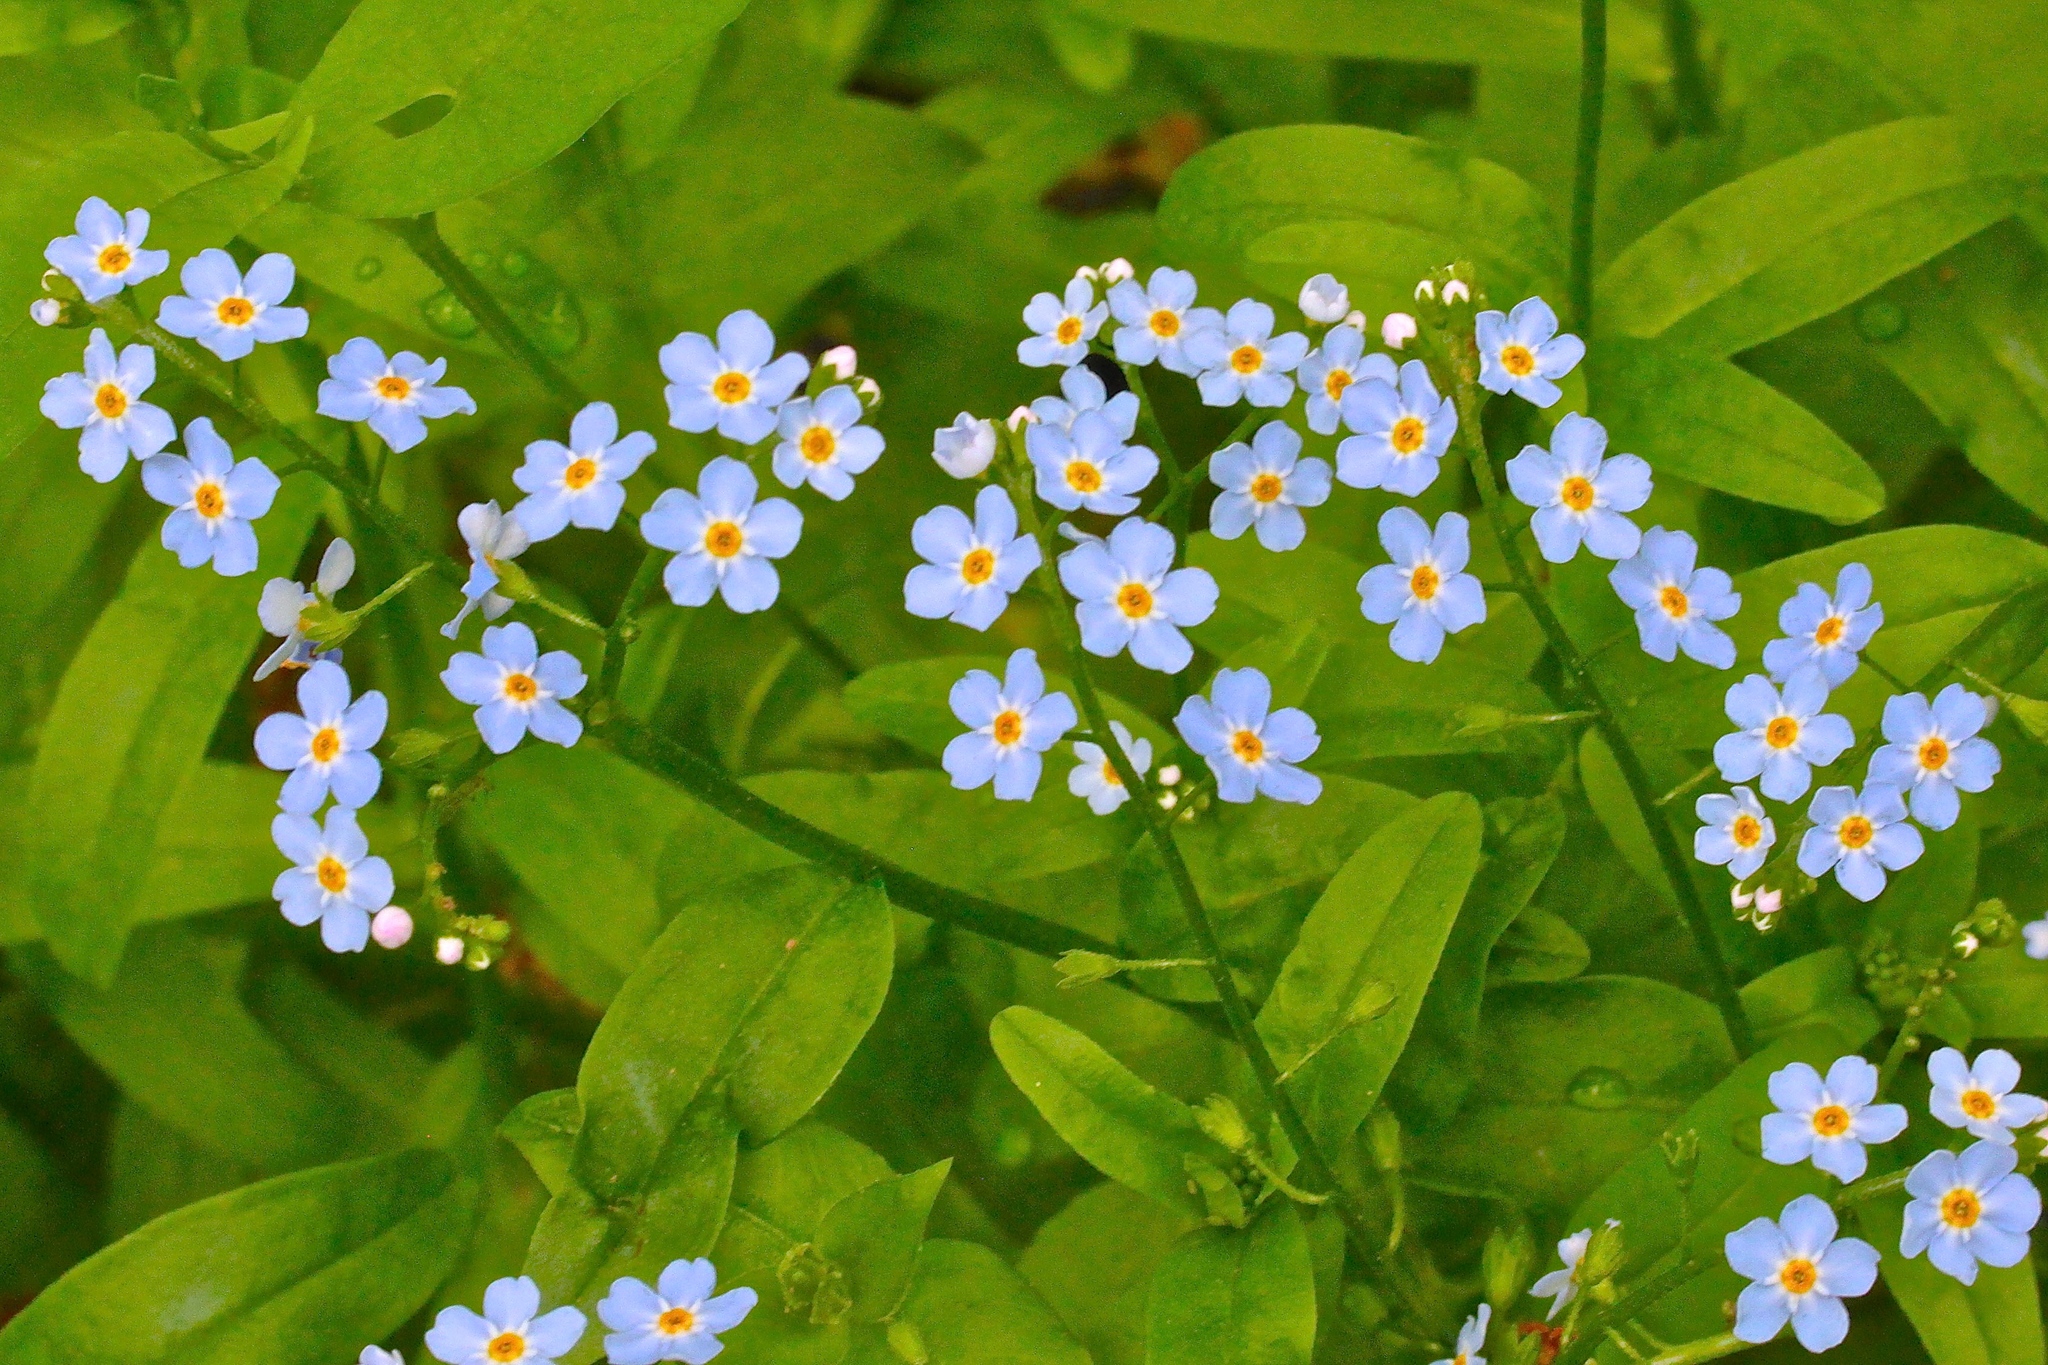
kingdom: Plantae
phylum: Tracheophyta
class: Magnoliopsida
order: Boraginales
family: Boraginaceae
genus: Myosotis
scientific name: Myosotis scorpioides
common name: Water forget-me-not
